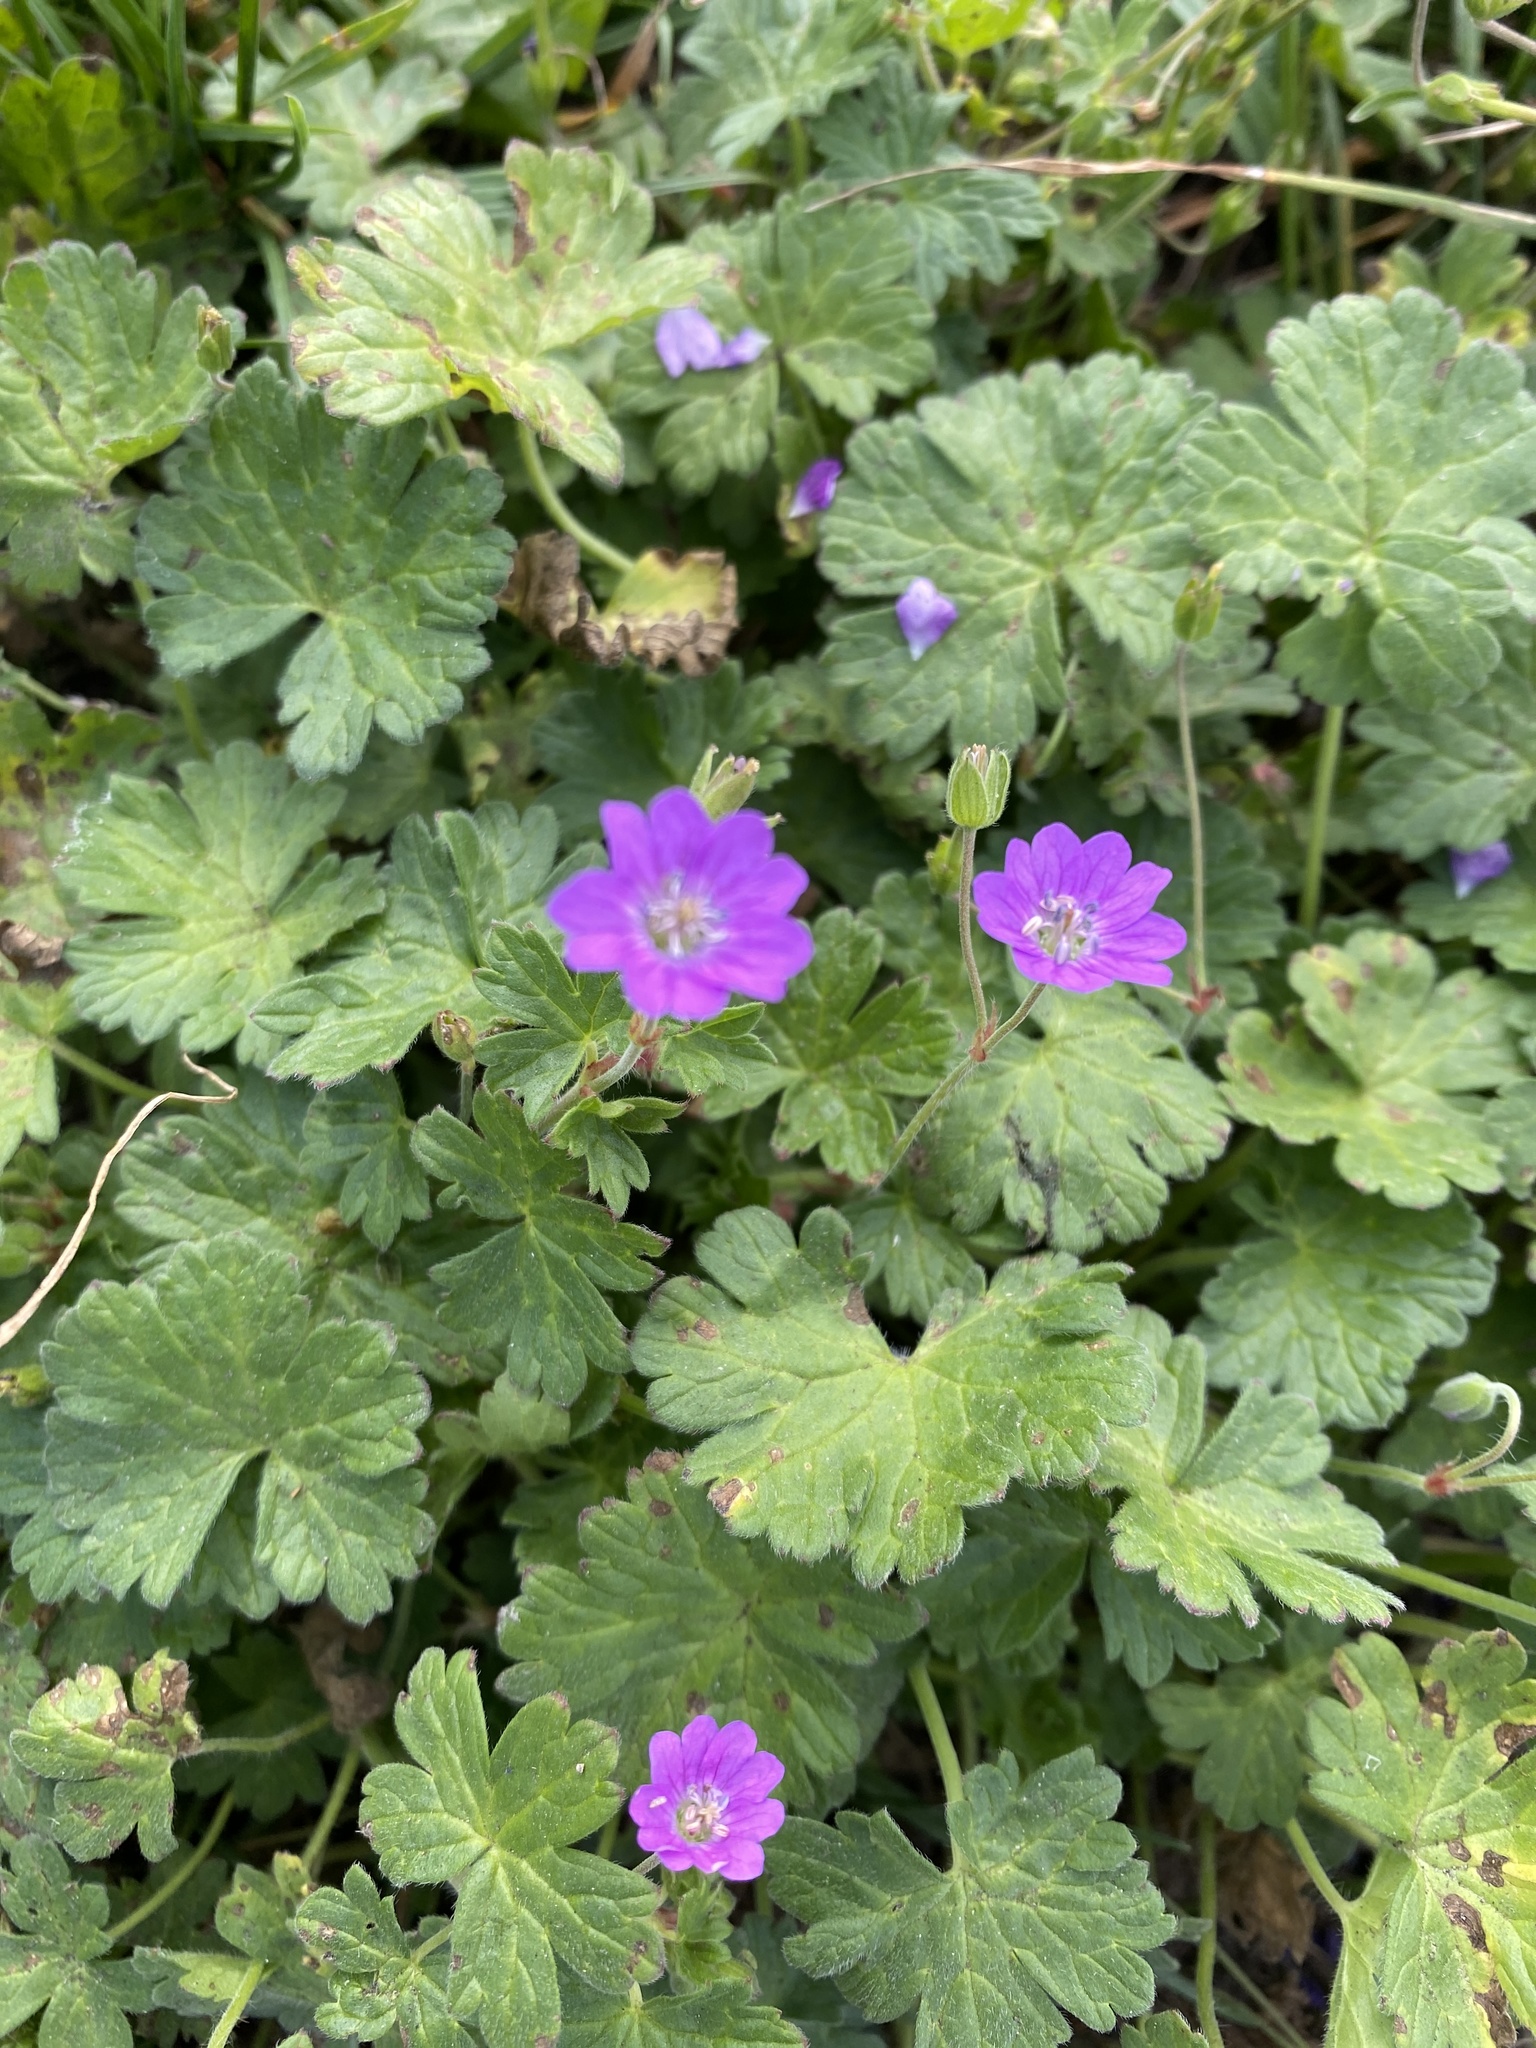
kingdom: Plantae
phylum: Tracheophyta
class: Magnoliopsida
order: Geraniales
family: Geraniaceae
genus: Geranium
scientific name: Geranium molle
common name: Dove's-foot crane's-bill
